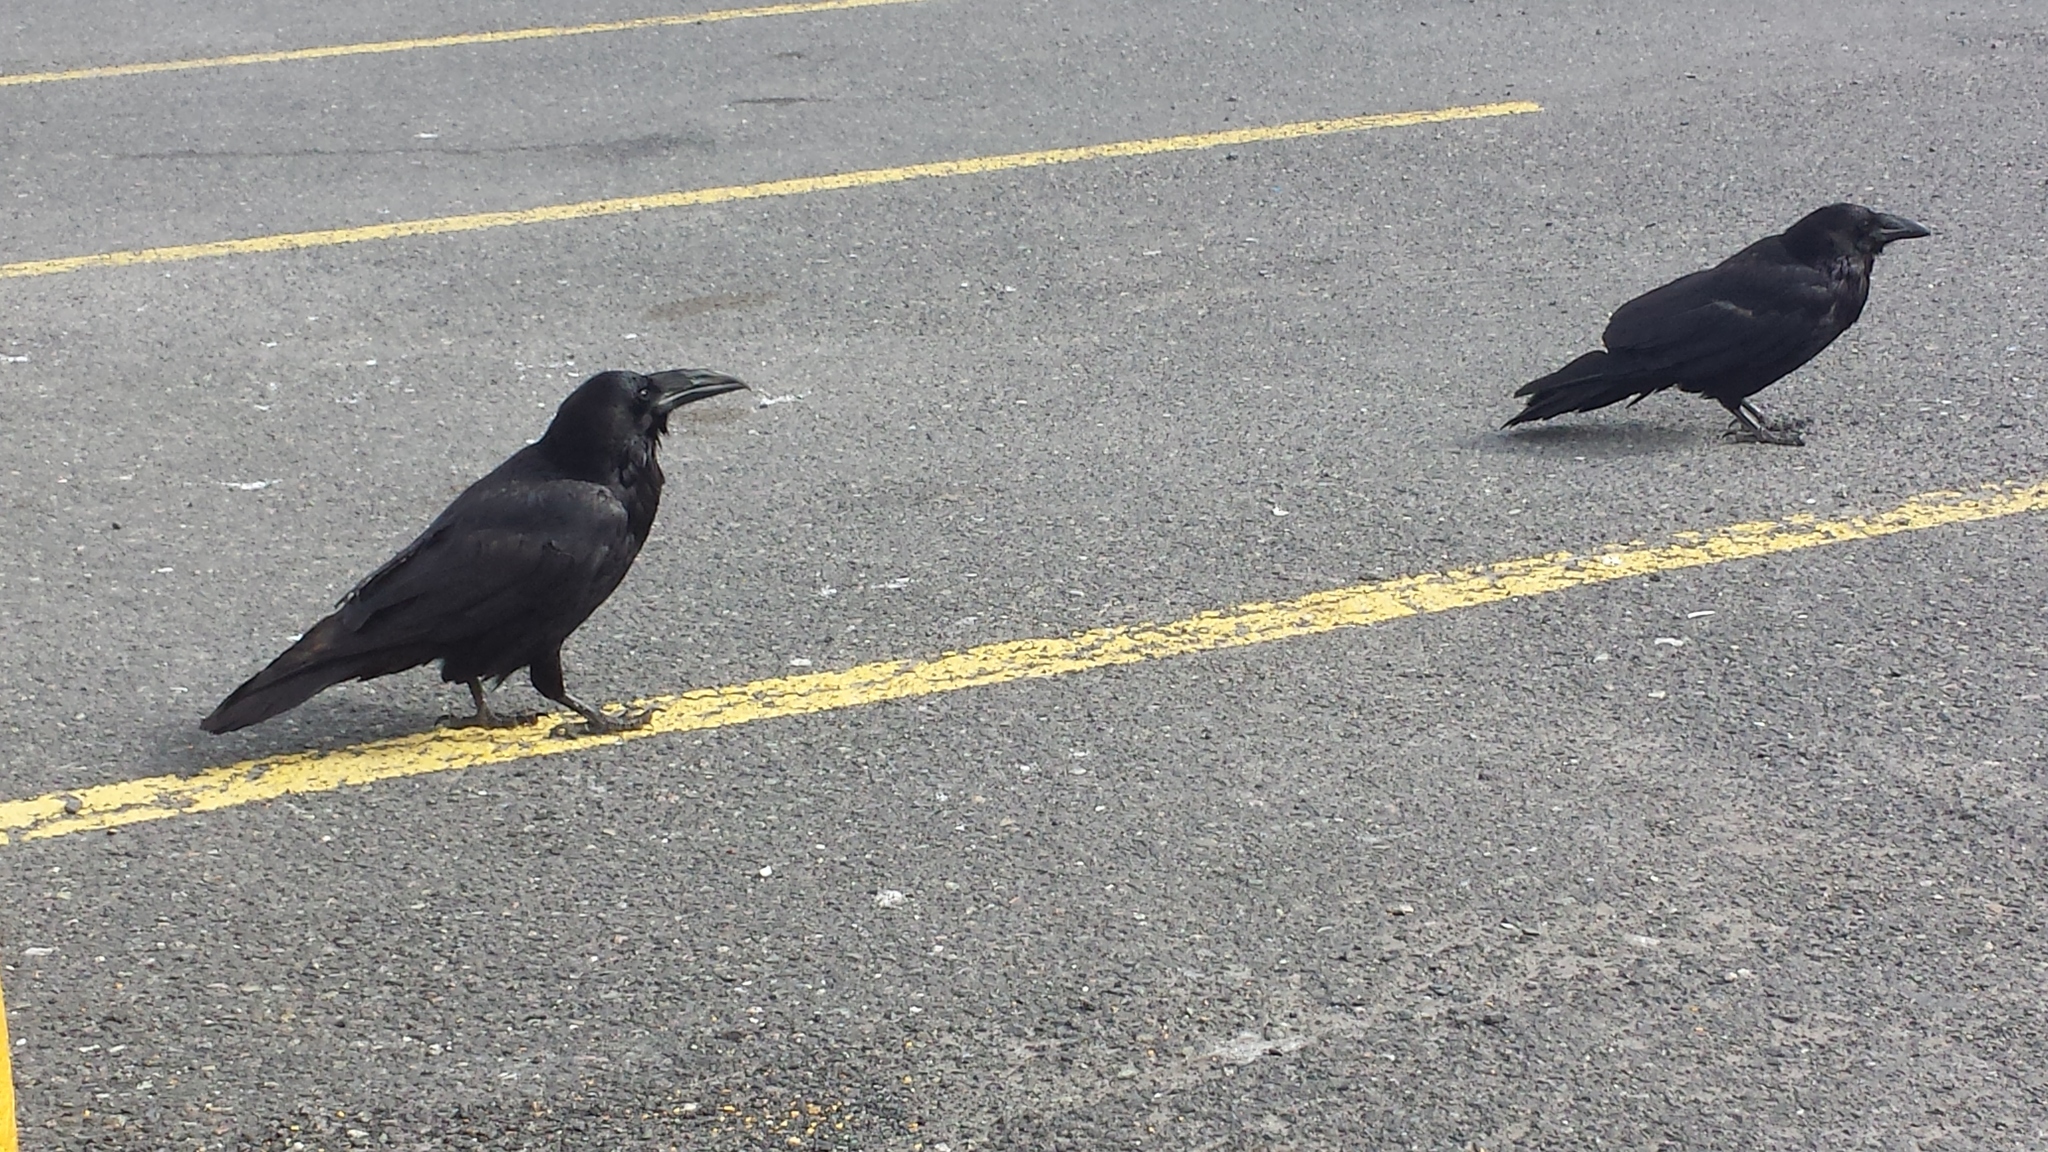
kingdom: Animalia
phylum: Chordata
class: Aves
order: Passeriformes
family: Corvidae
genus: Corvus
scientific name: Corvus corax
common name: Common raven
